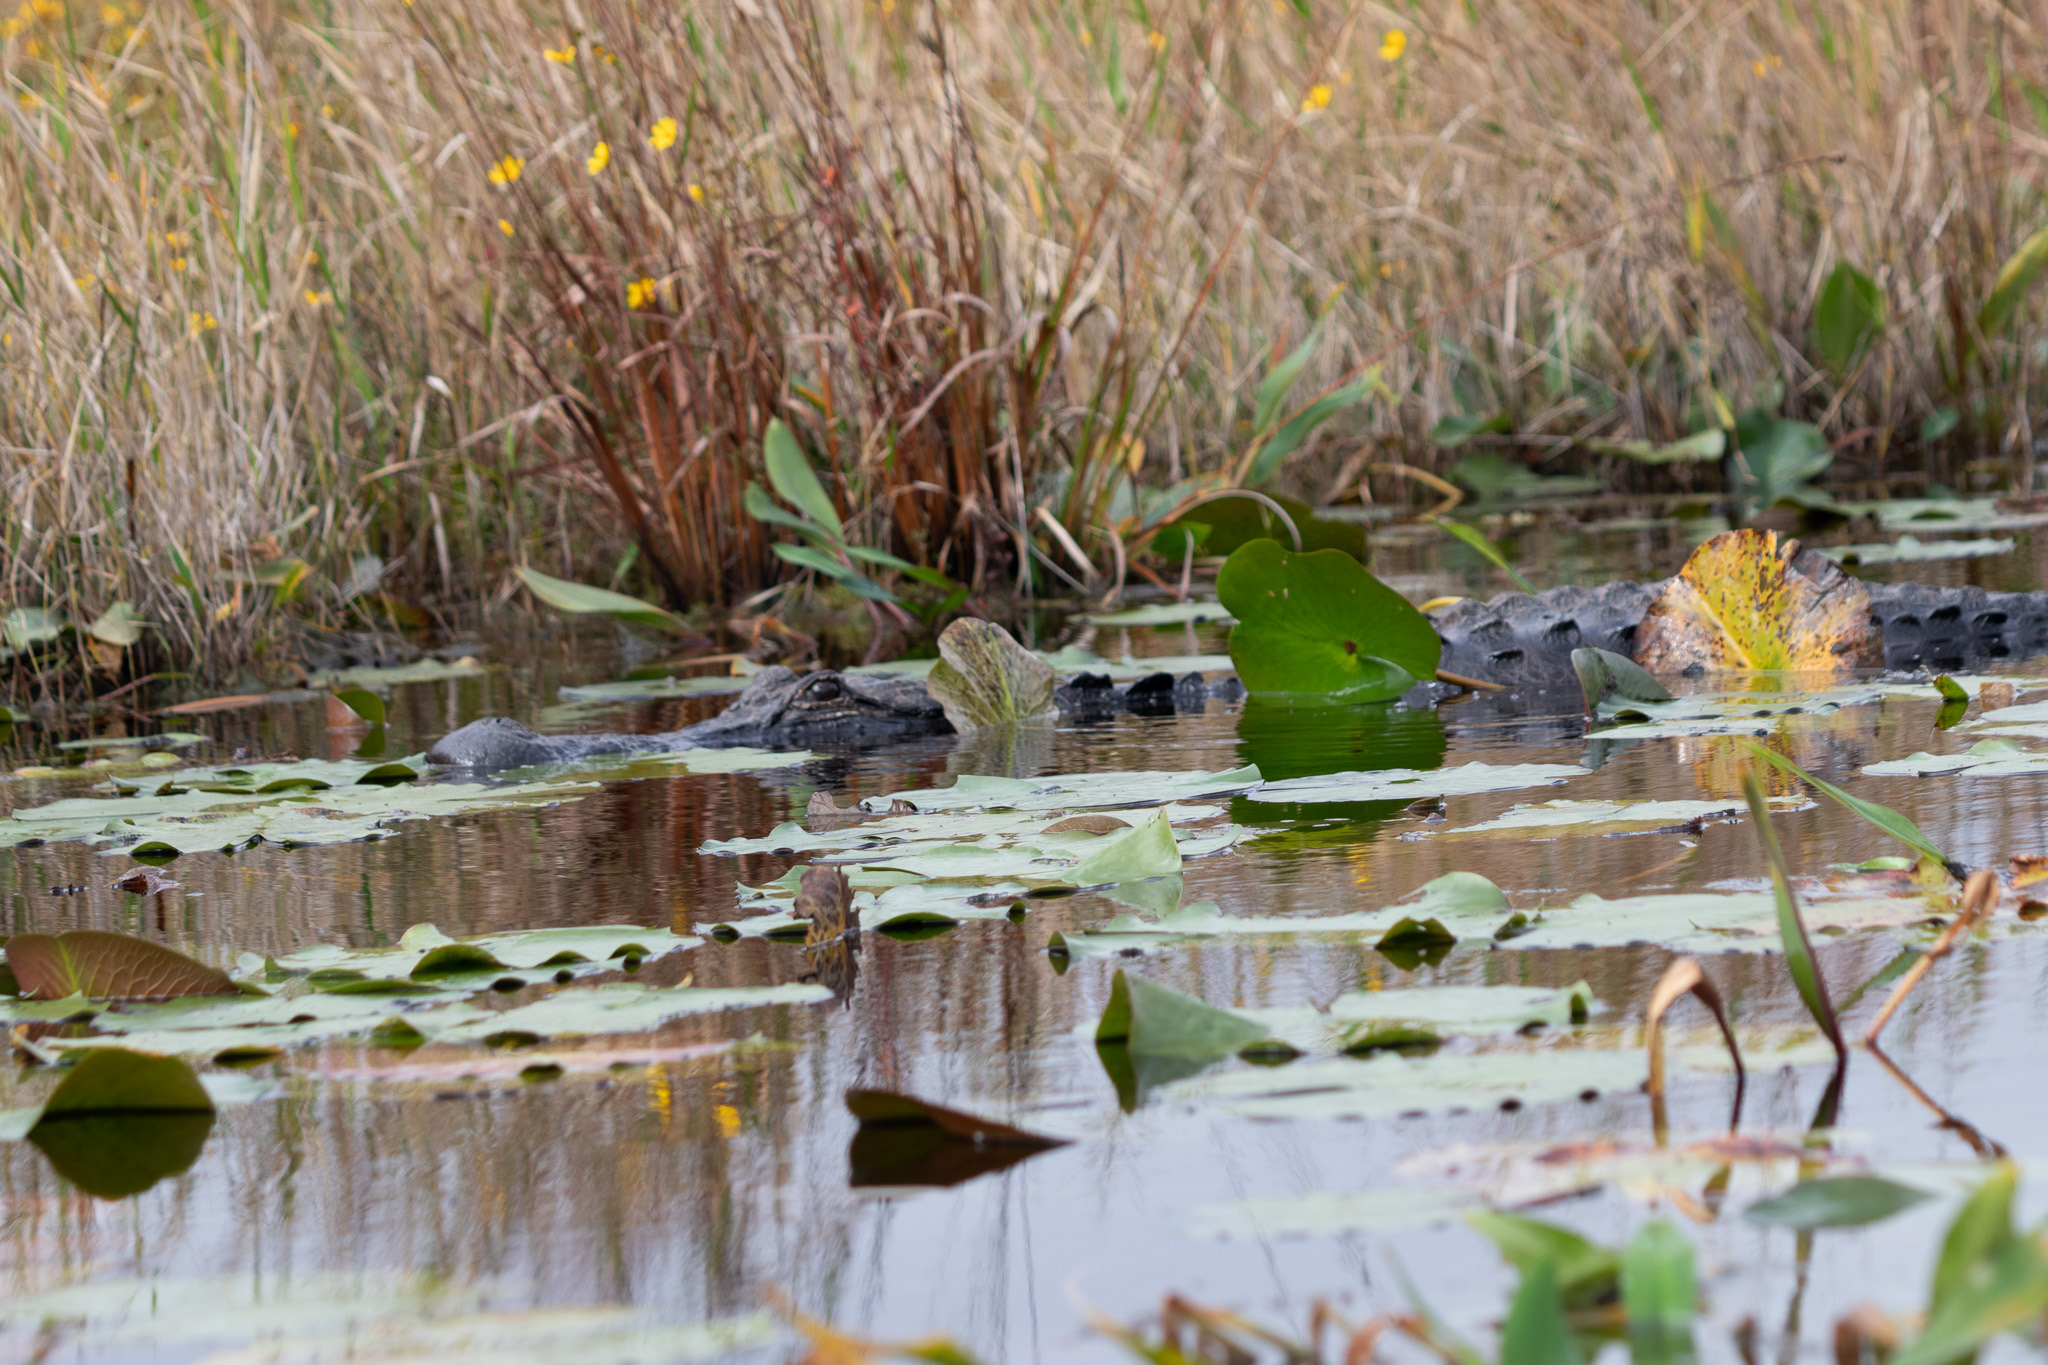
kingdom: Animalia
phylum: Chordata
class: Crocodylia
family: Alligatoridae
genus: Alligator
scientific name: Alligator mississippiensis
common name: American alligator
